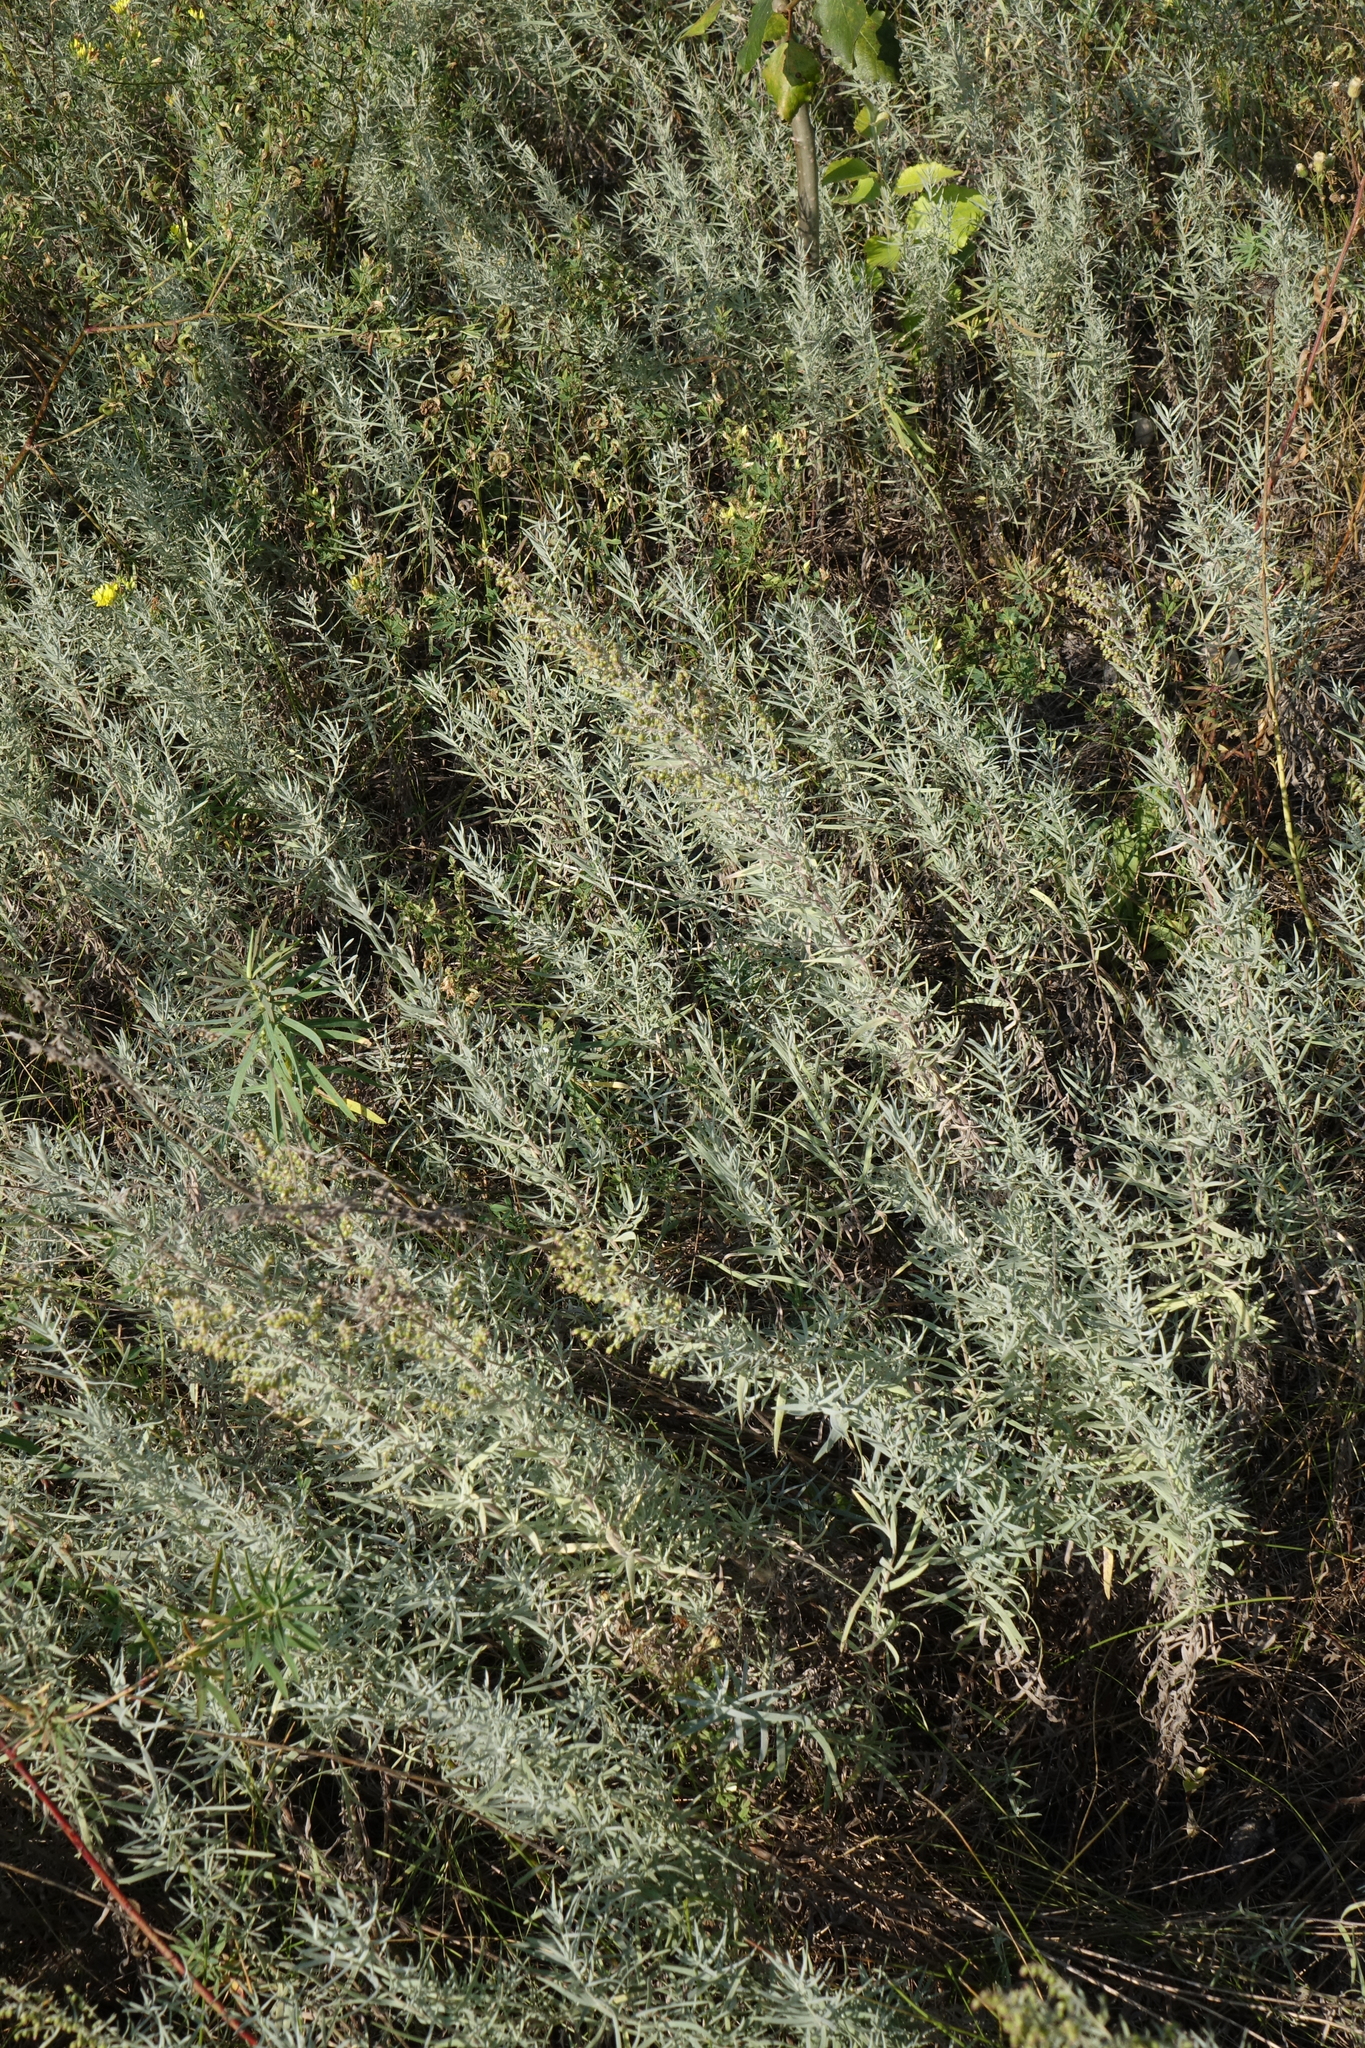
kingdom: Plantae
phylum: Tracheophyta
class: Magnoliopsida
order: Asterales
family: Asteraceae
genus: Artemisia
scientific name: Artemisia glauca
